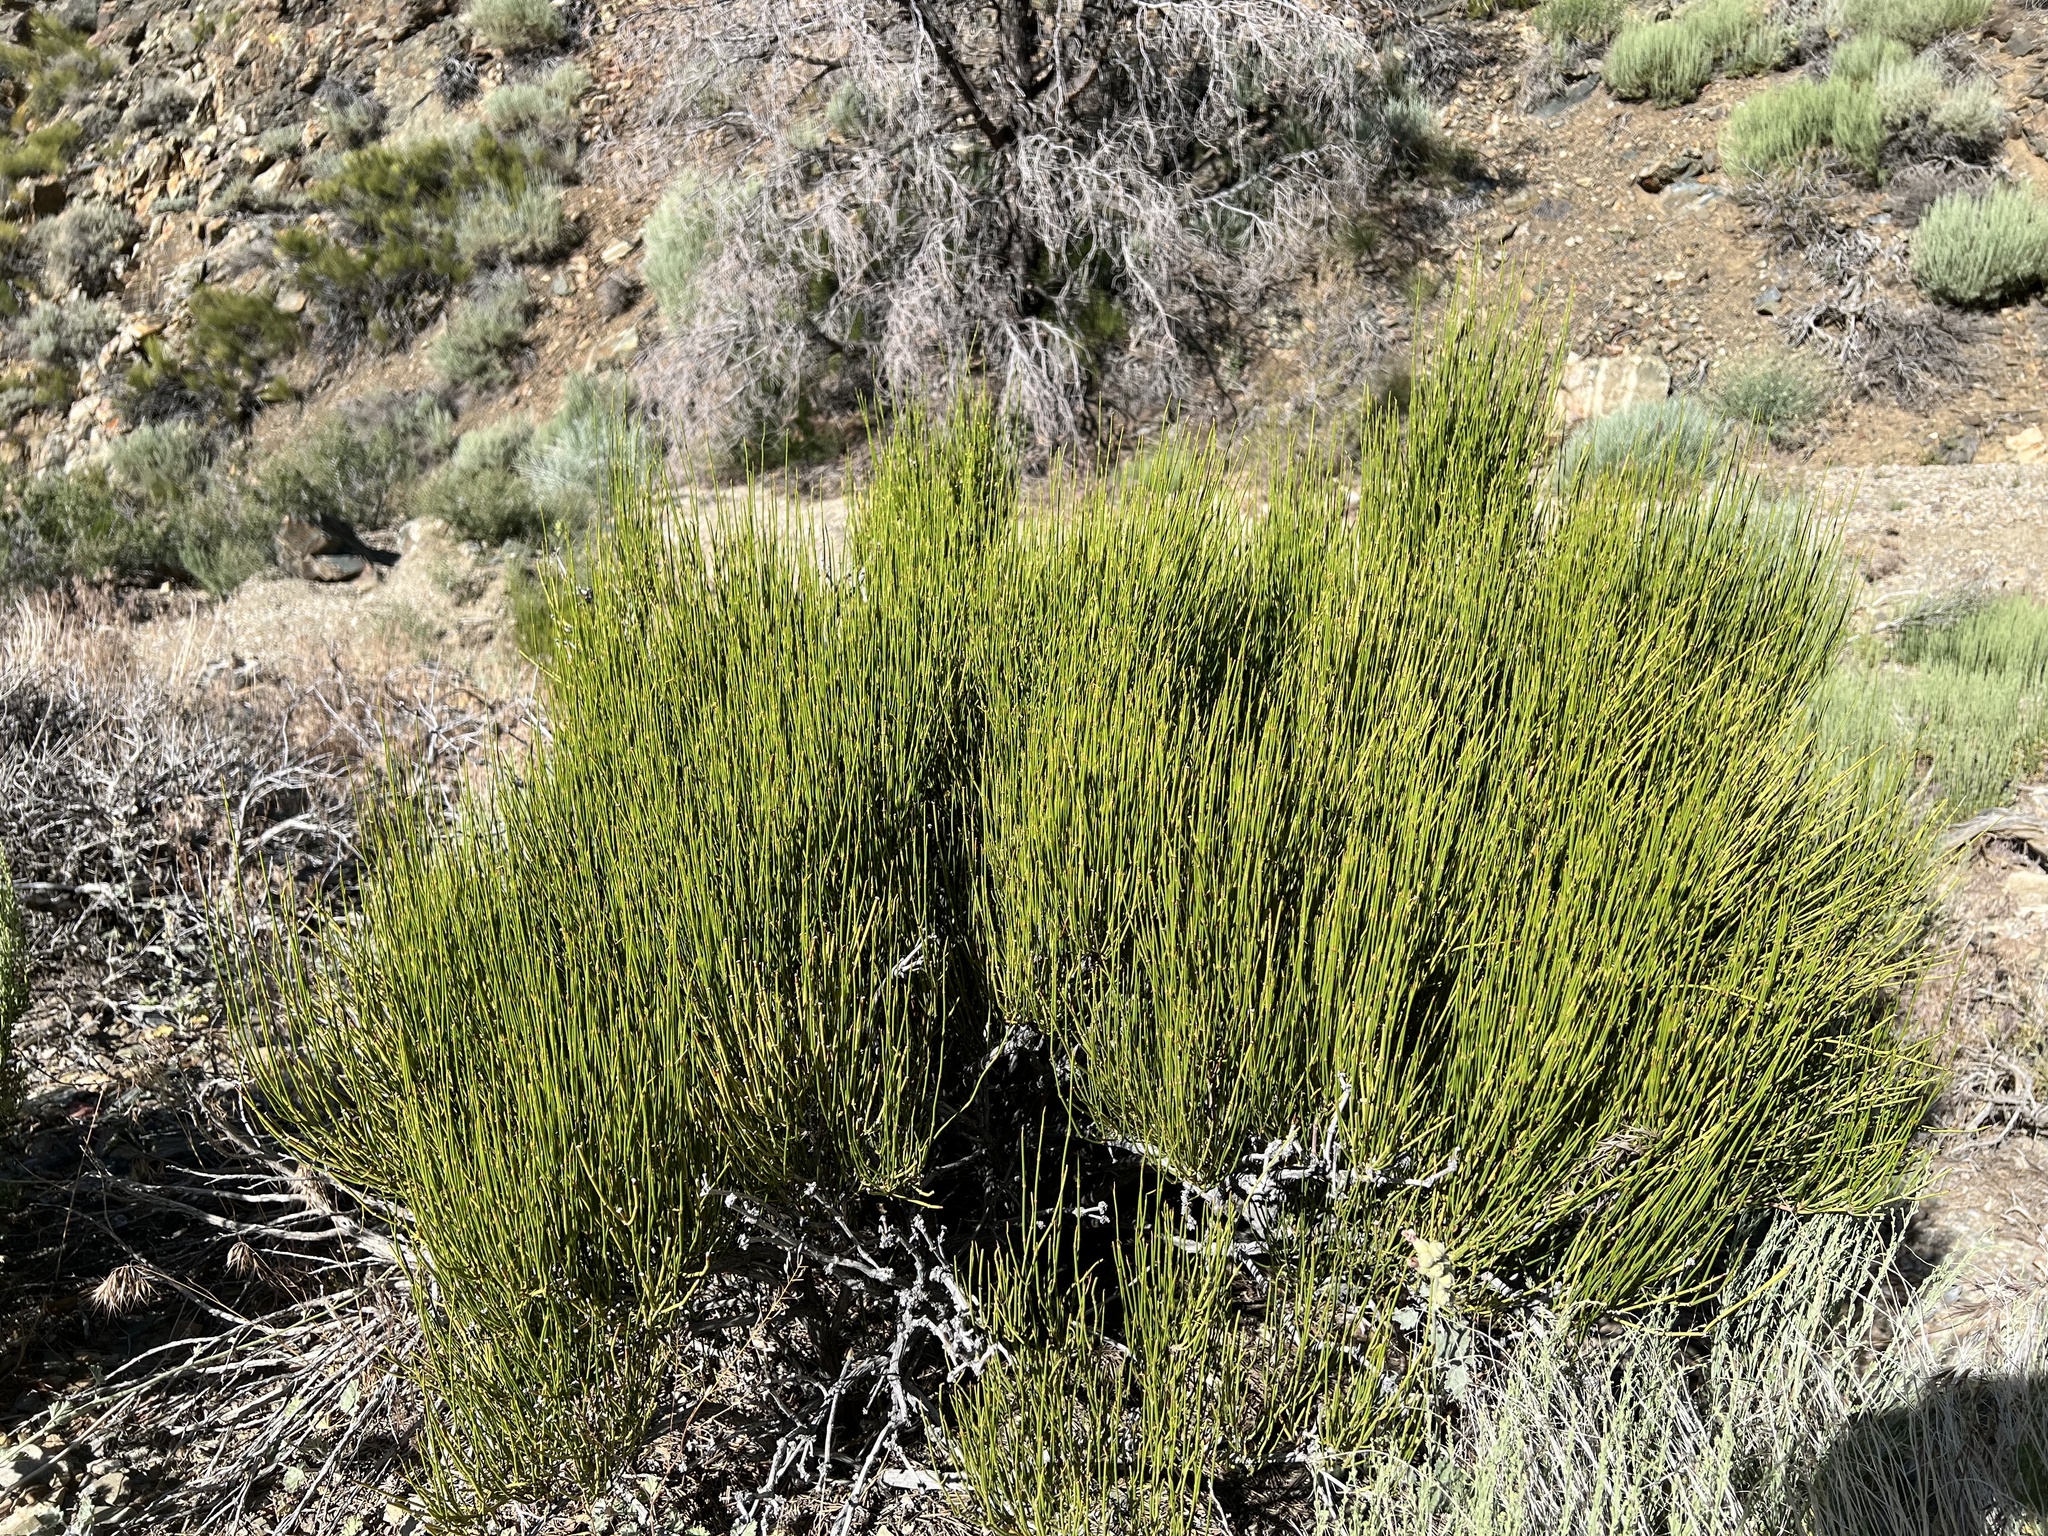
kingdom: Plantae
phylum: Tracheophyta
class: Gnetopsida
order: Ephedrales
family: Ephedraceae
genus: Ephedra
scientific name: Ephedra viridis
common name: Green ephedra
